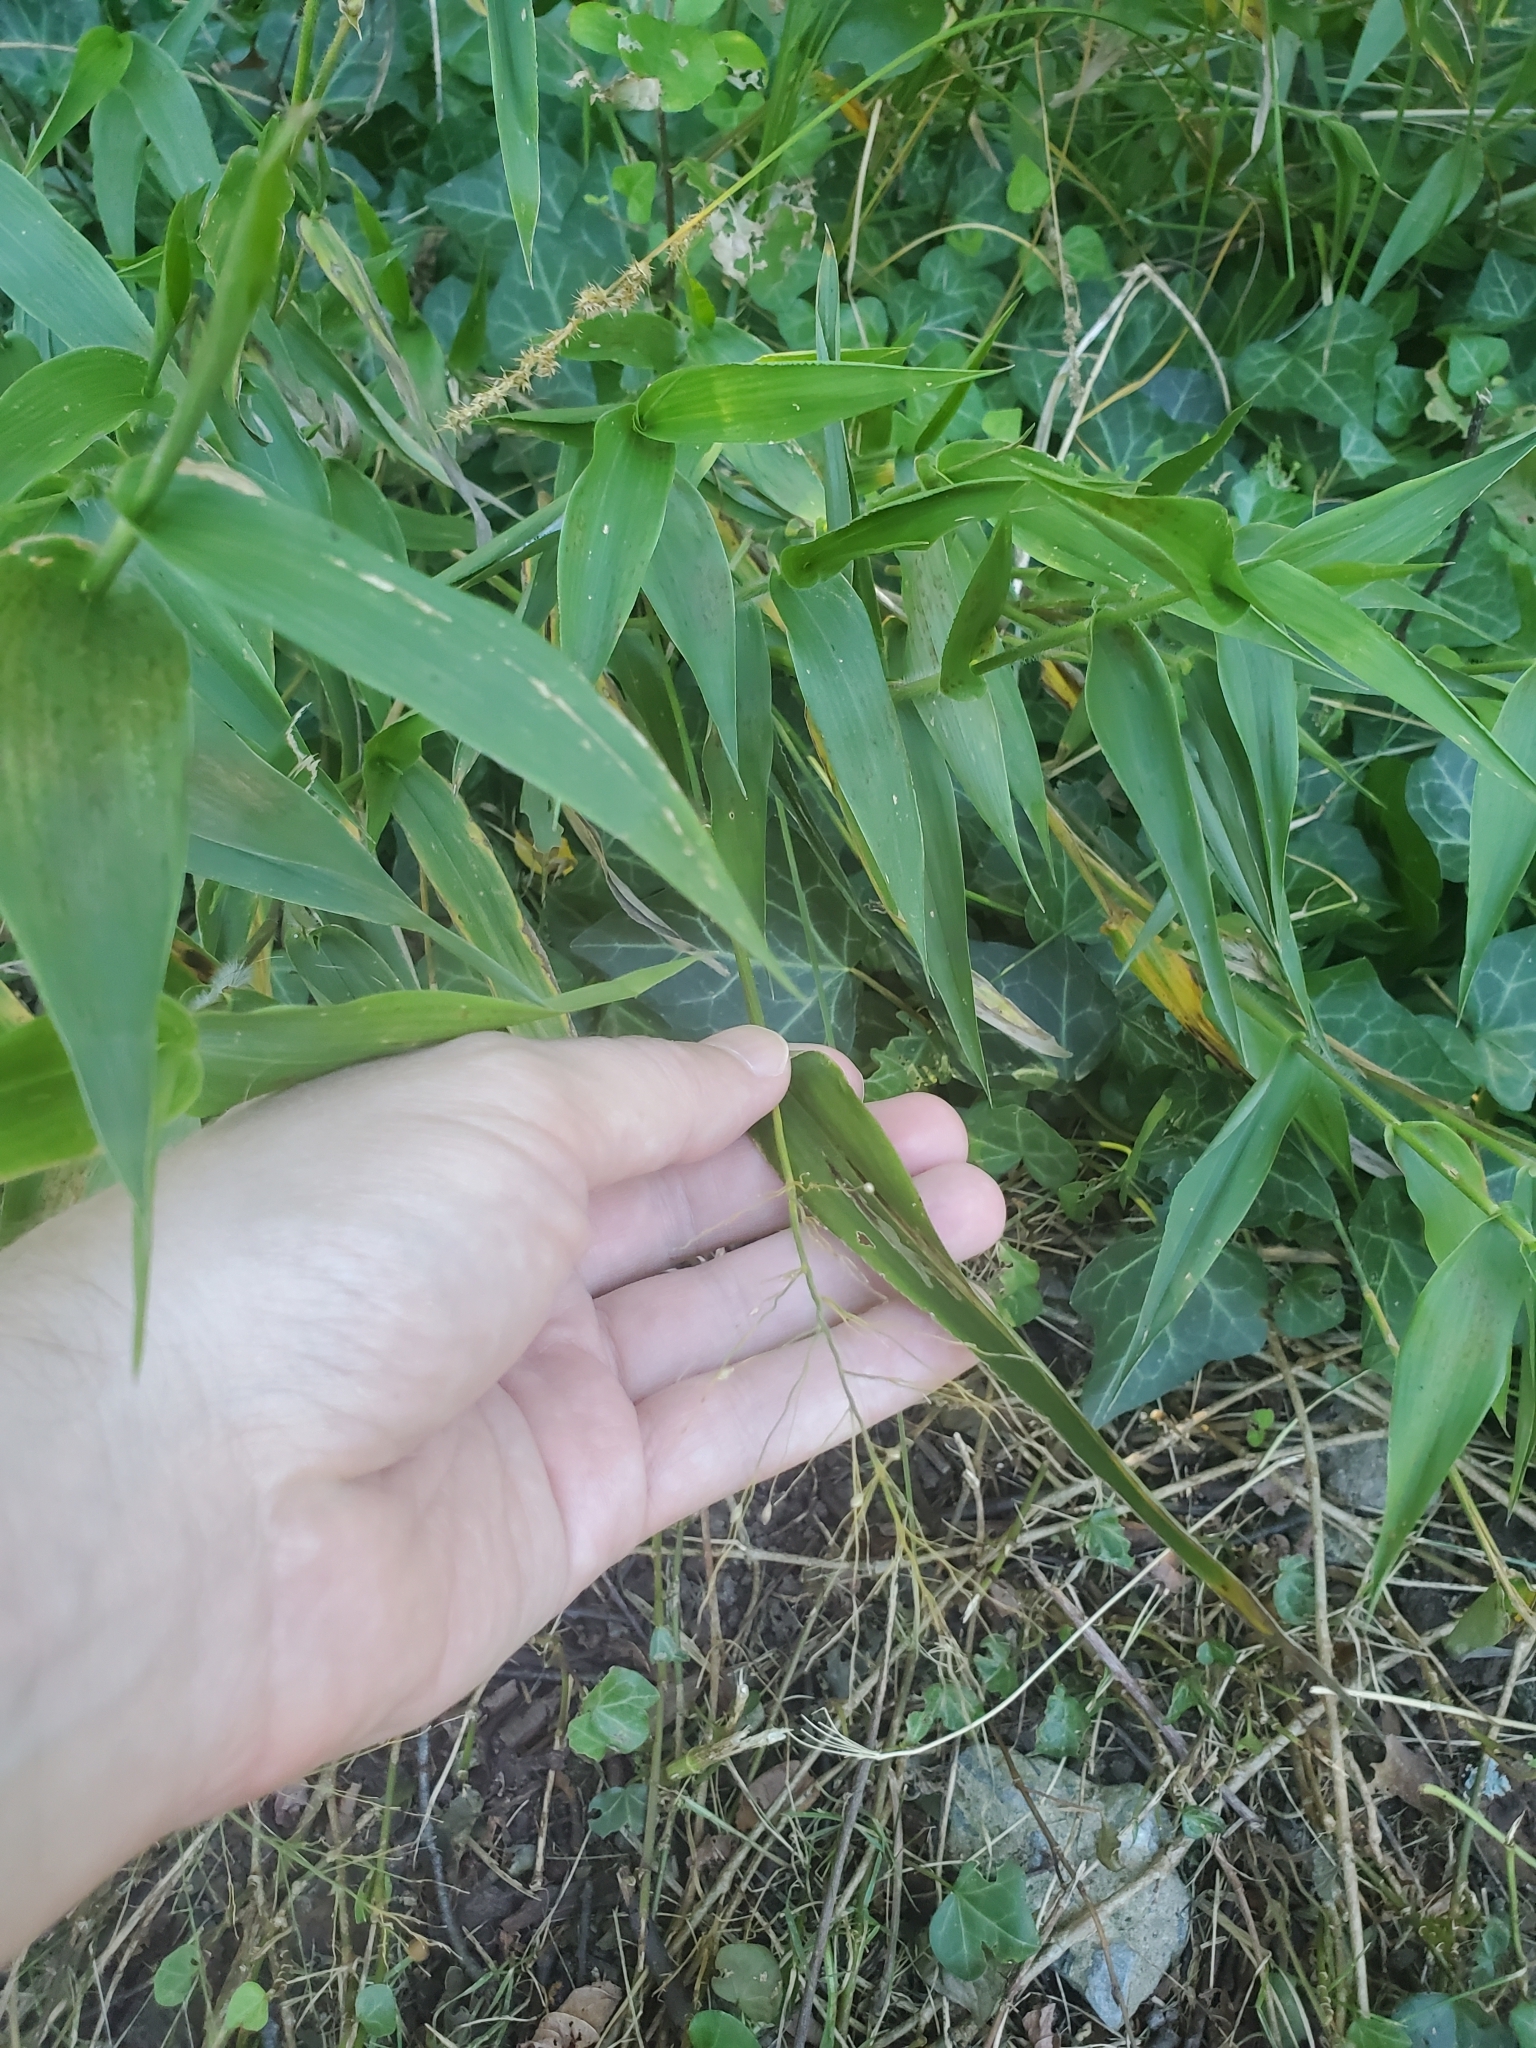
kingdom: Plantae
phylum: Tracheophyta
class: Liliopsida
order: Poales
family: Poaceae
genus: Dichanthelium
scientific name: Dichanthelium clandestinum
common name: Deer-tongue grass
